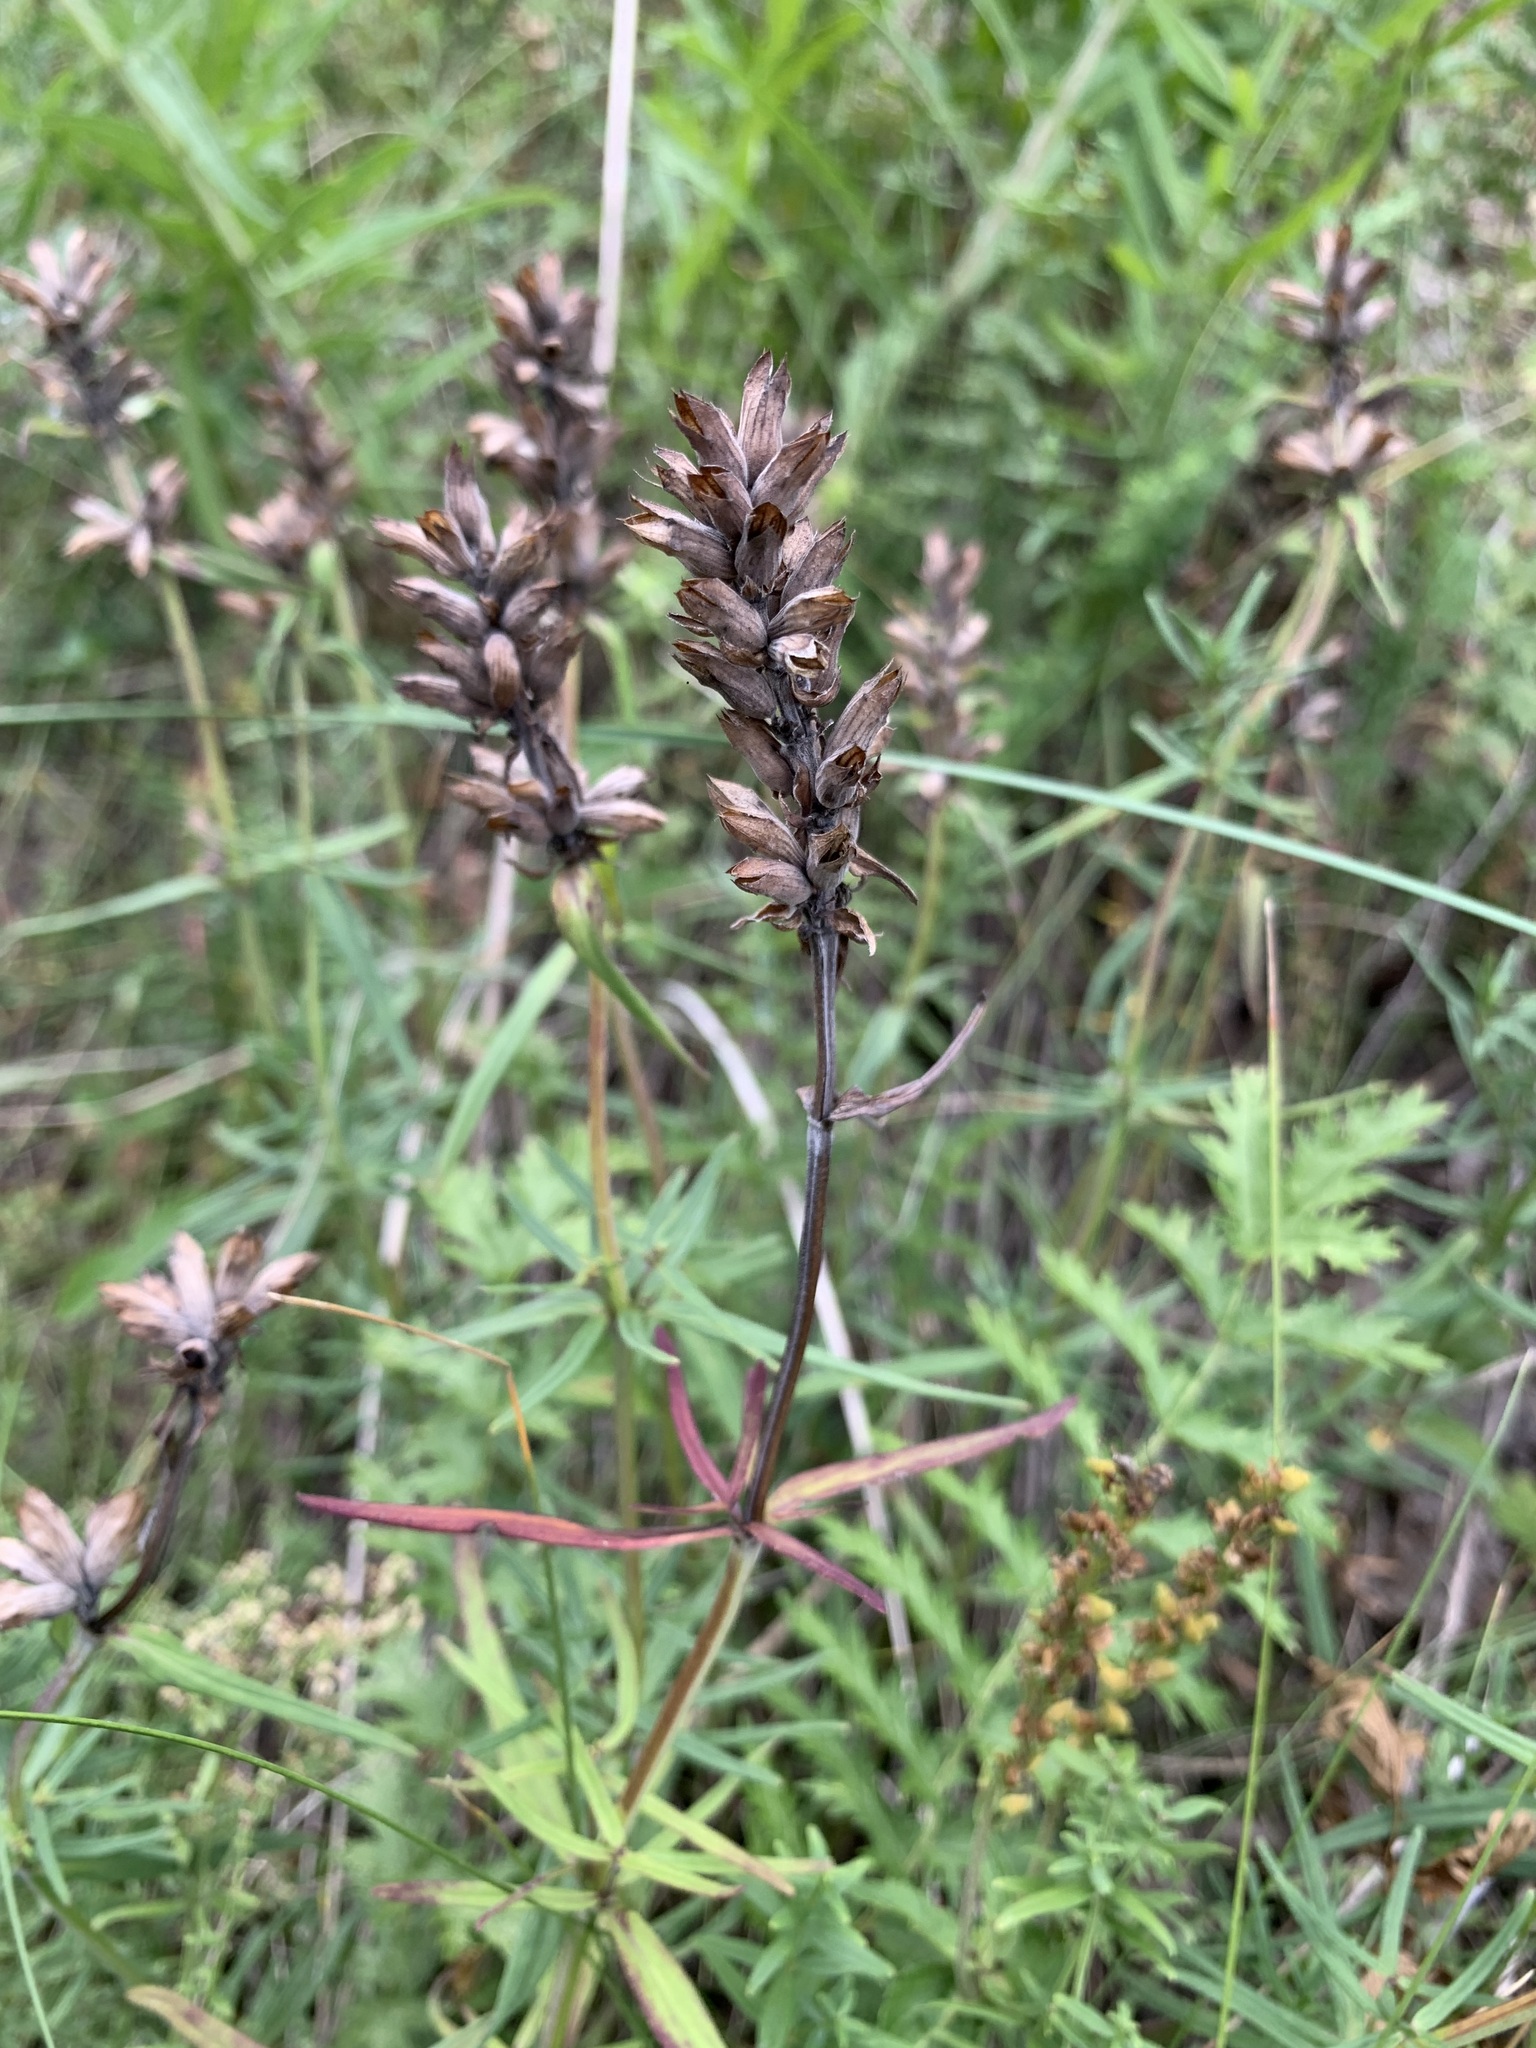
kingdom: Plantae
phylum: Tracheophyta
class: Magnoliopsida
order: Lamiales
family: Lamiaceae
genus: Dracocephalum
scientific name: Dracocephalum ruyschiana
